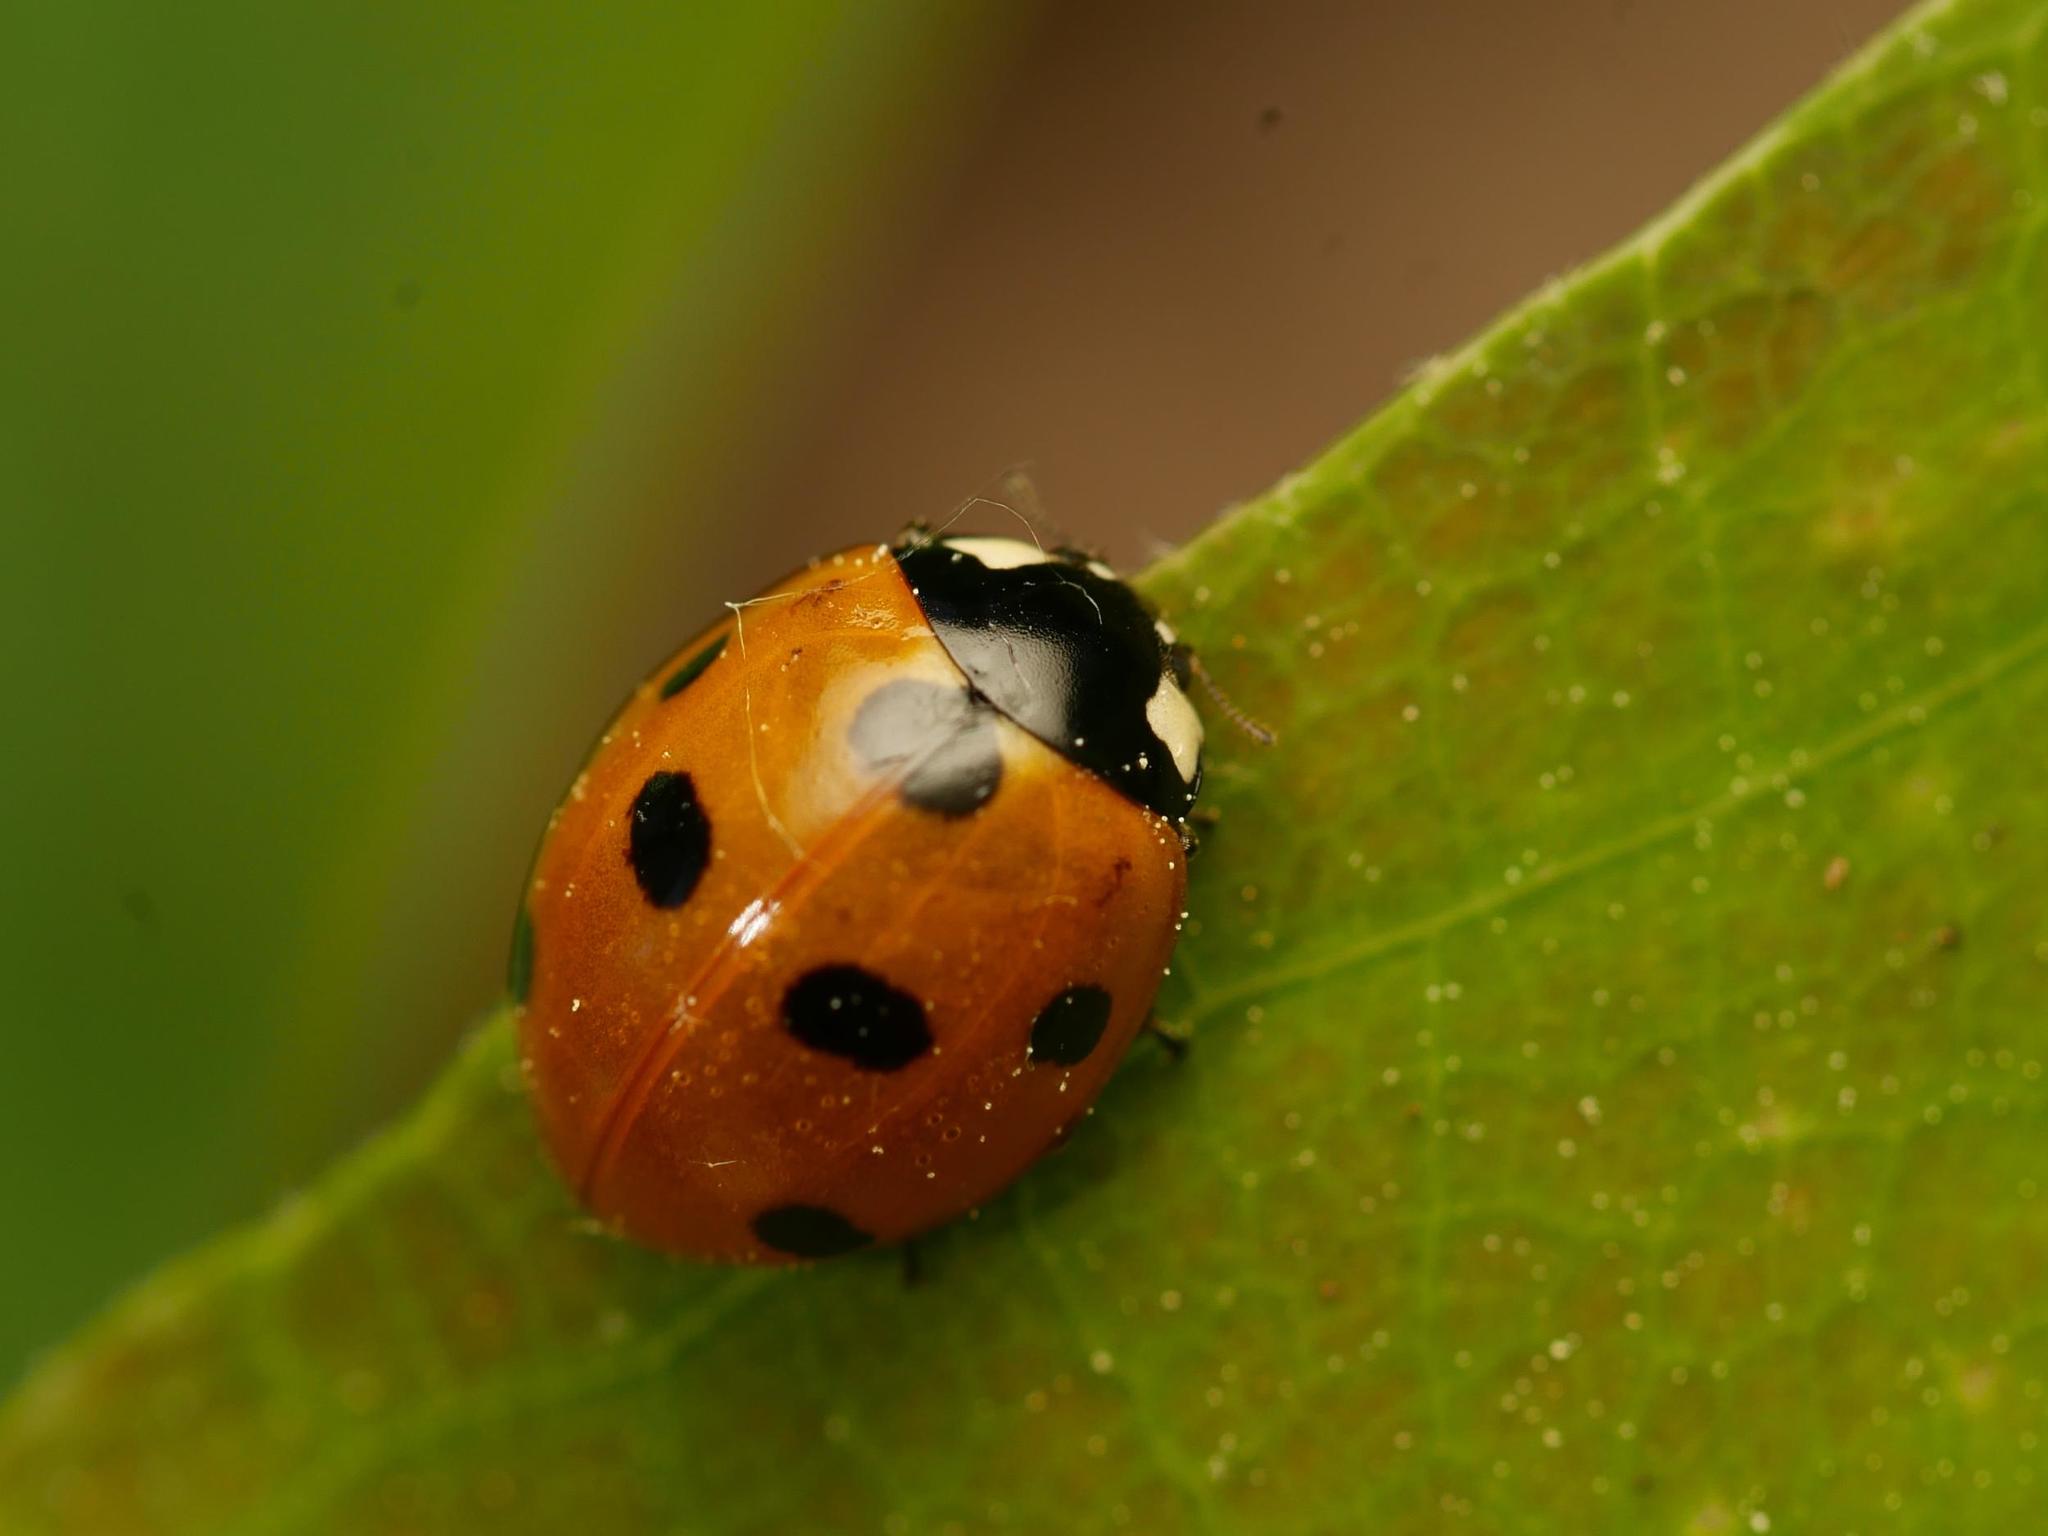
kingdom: Animalia
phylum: Arthropoda
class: Insecta
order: Coleoptera
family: Coccinellidae
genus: Coccinella
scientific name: Coccinella septempunctata
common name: Sevenspotted lady beetle
